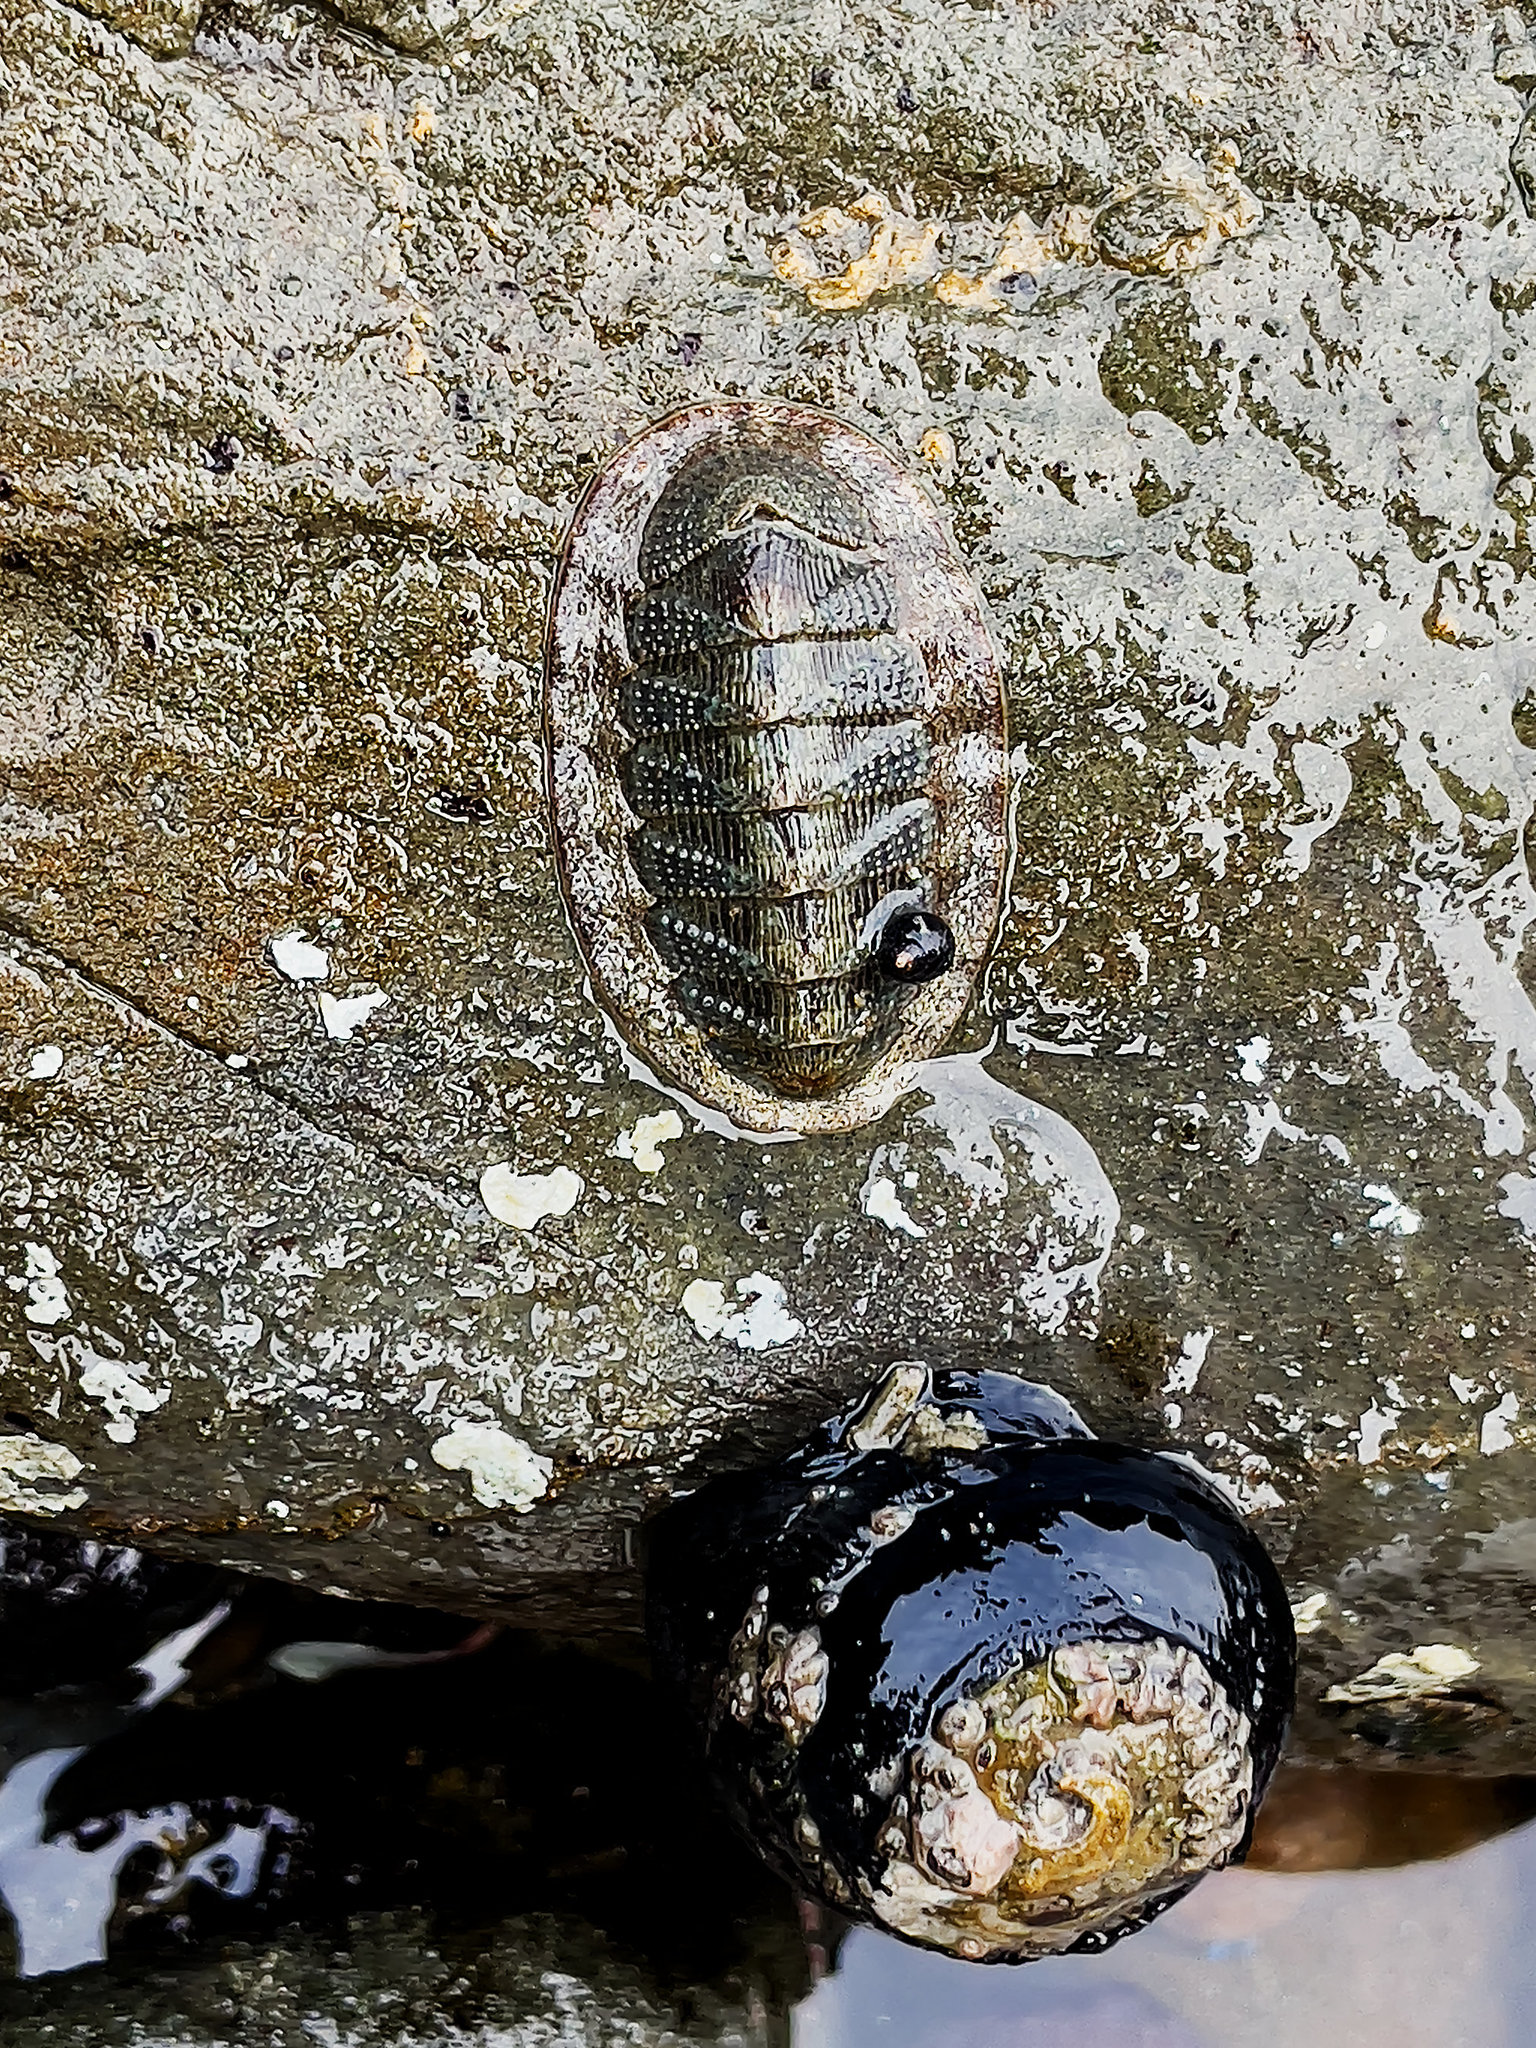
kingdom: Animalia
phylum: Mollusca
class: Polyplacophora
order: Chitonida
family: Ischnochitonidae
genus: Lepidozona
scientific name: Lepidozona cooperi
